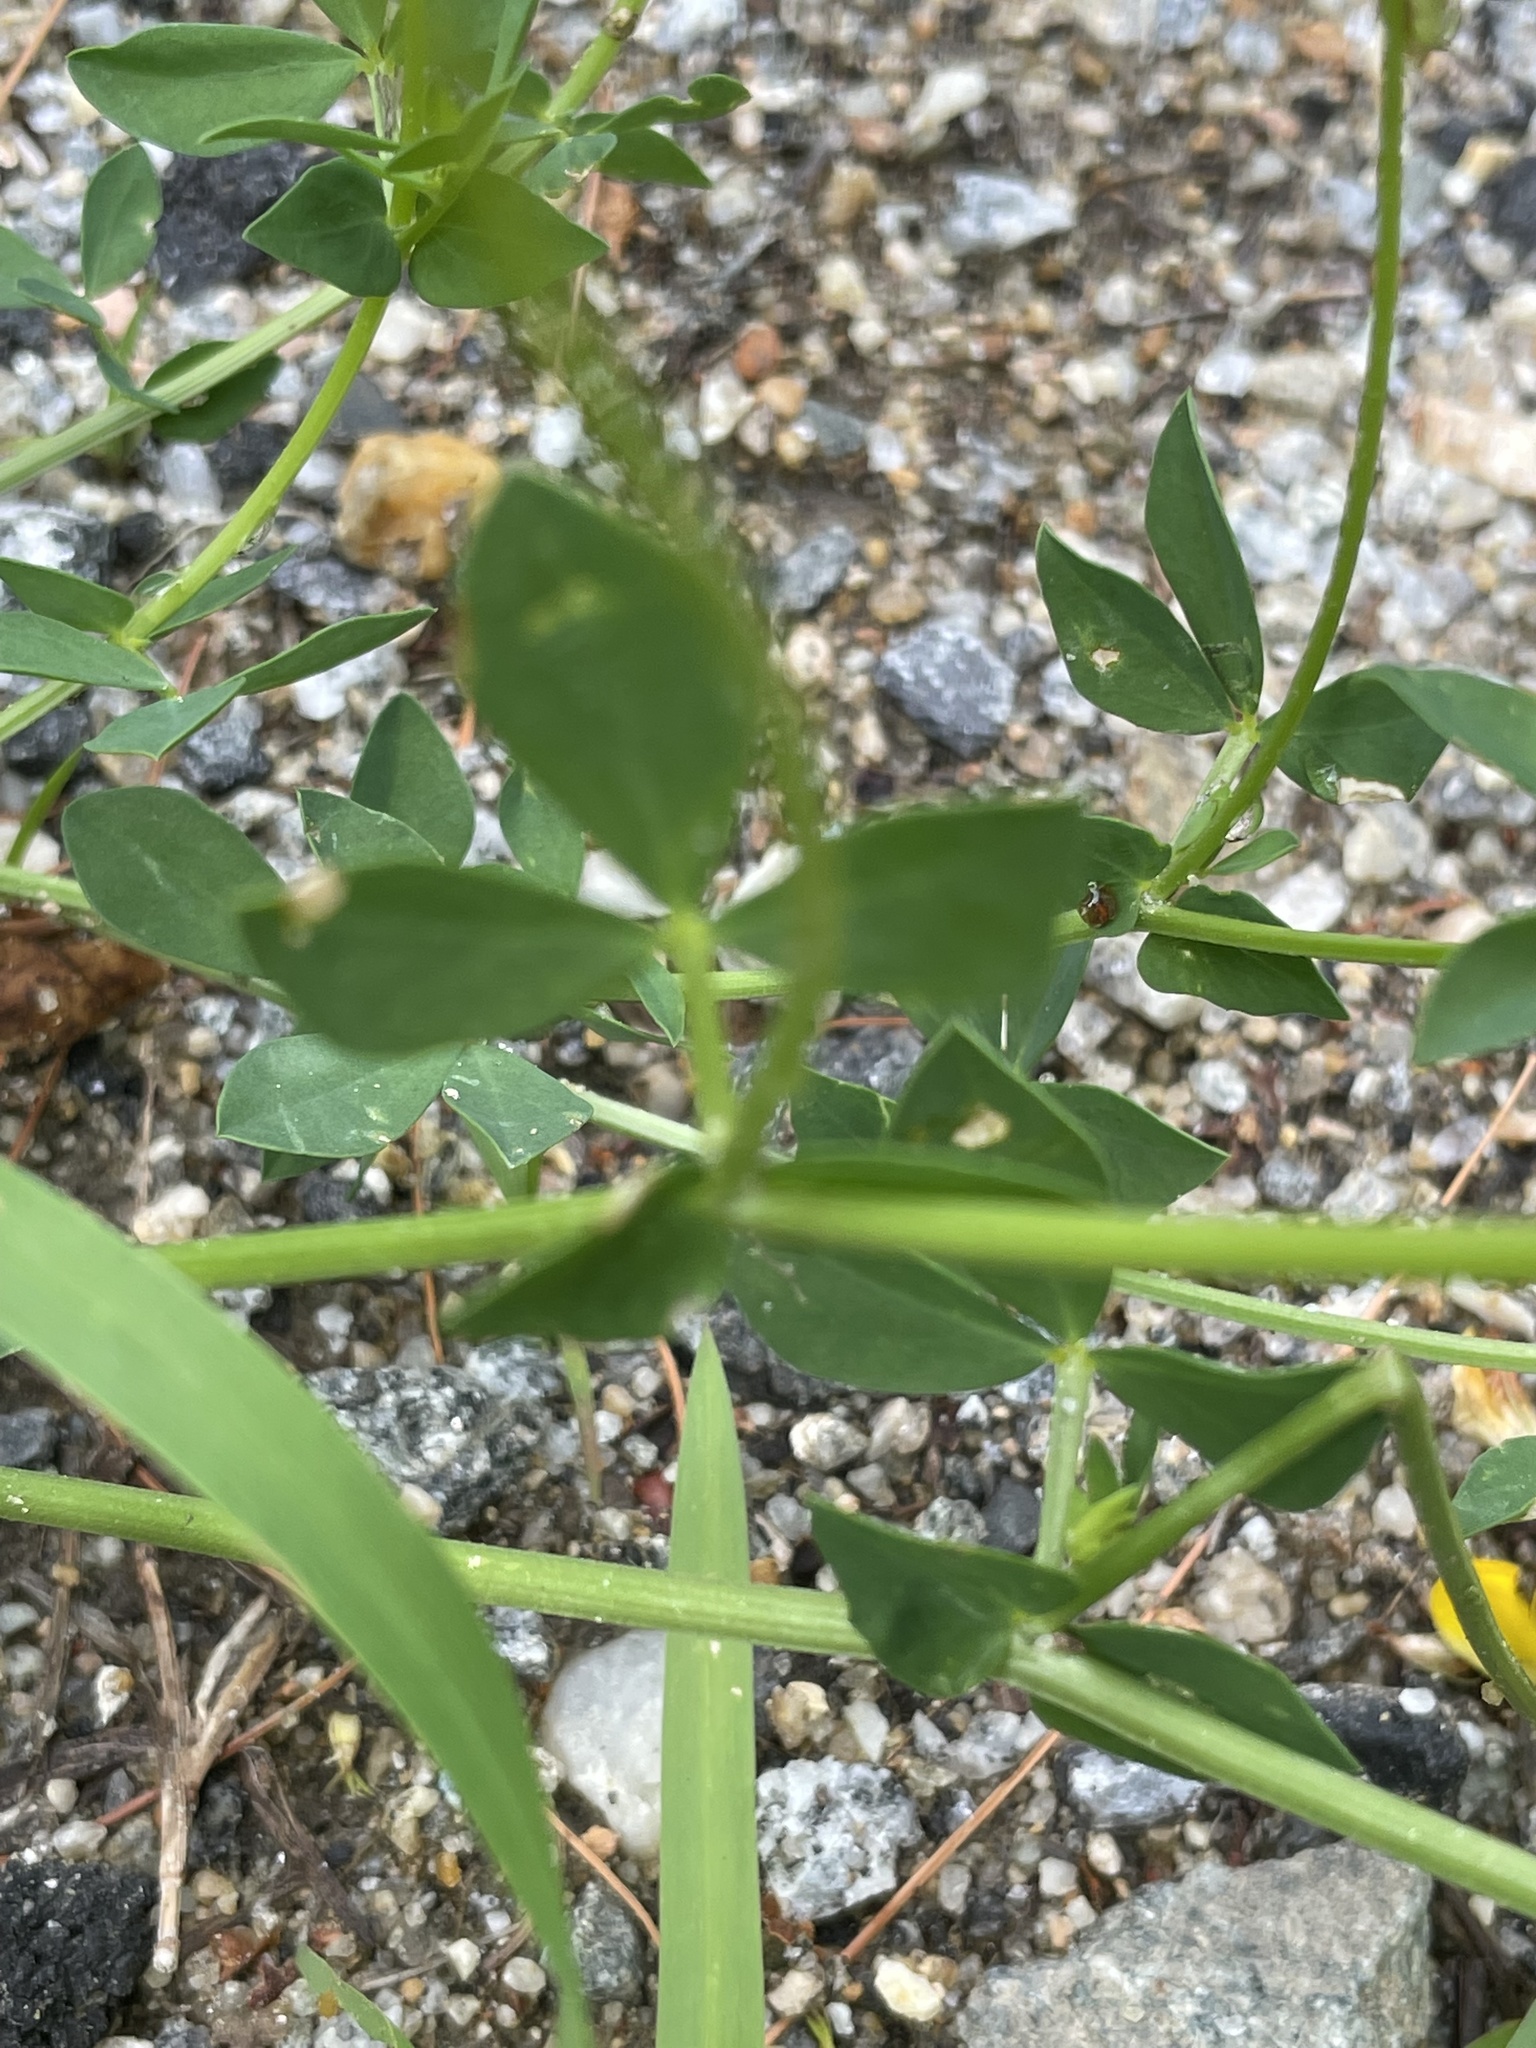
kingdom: Plantae
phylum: Tracheophyta
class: Magnoliopsida
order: Fabales
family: Fabaceae
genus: Lotus
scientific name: Lotus corniculatus
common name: Common bird's-foot-trefoil
